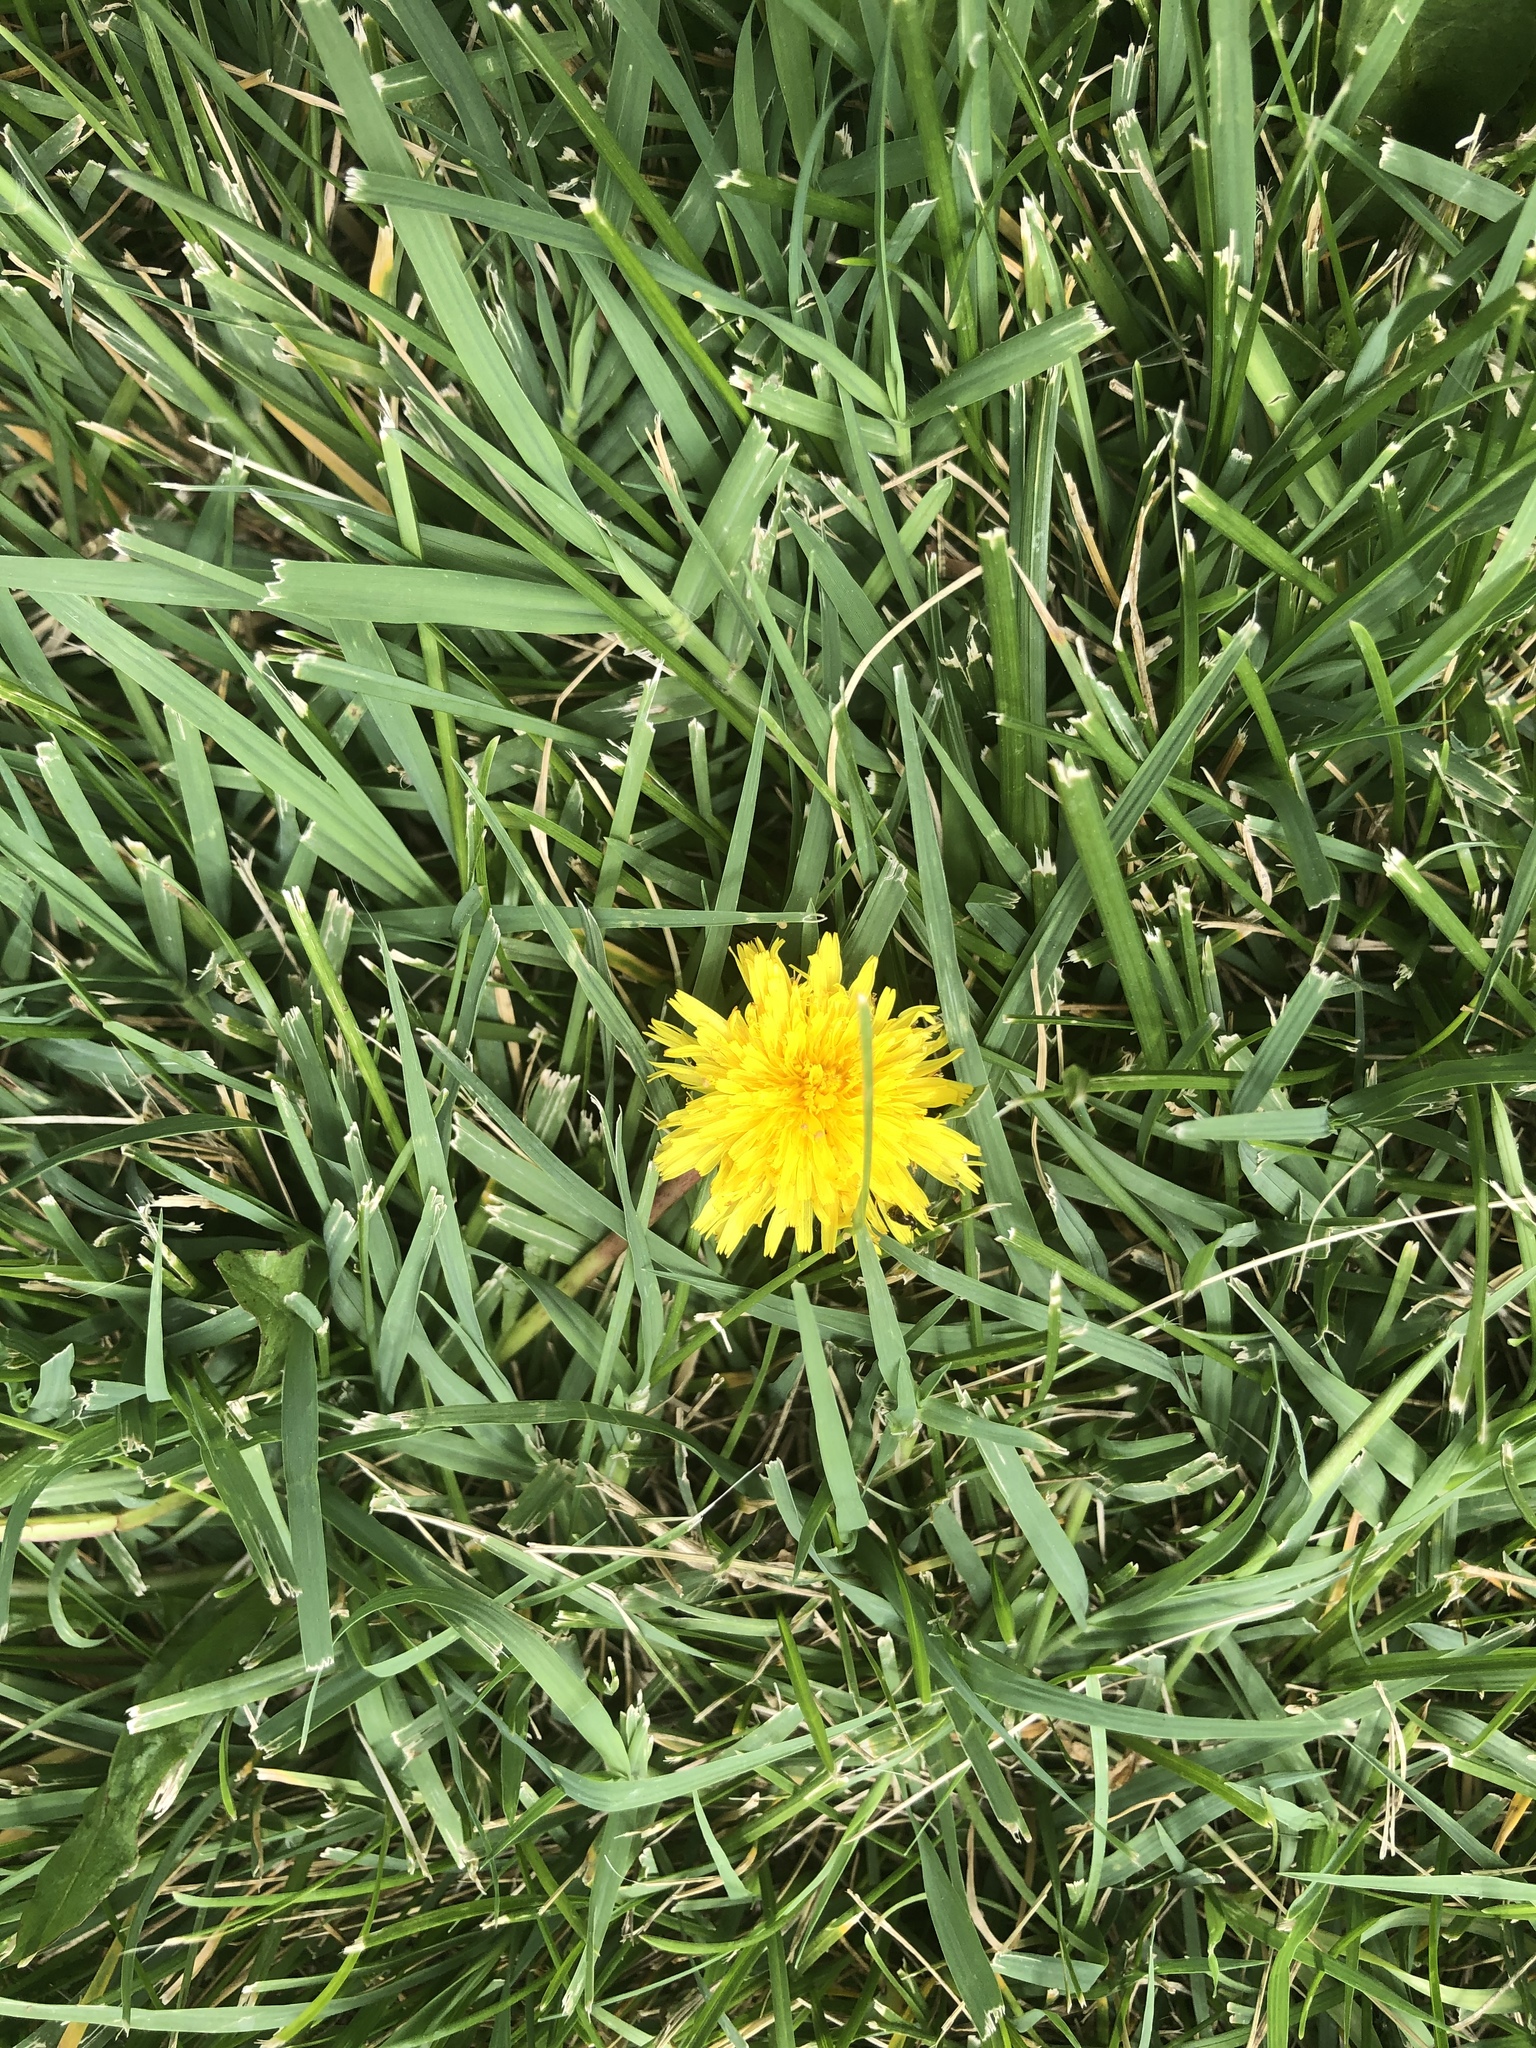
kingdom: Plantae
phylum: Tracheophyta
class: Magnoliopsida
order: Asterales
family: Asteraceae
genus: Taraxacum
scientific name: Taraxacum officinale
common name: Common dandelion
